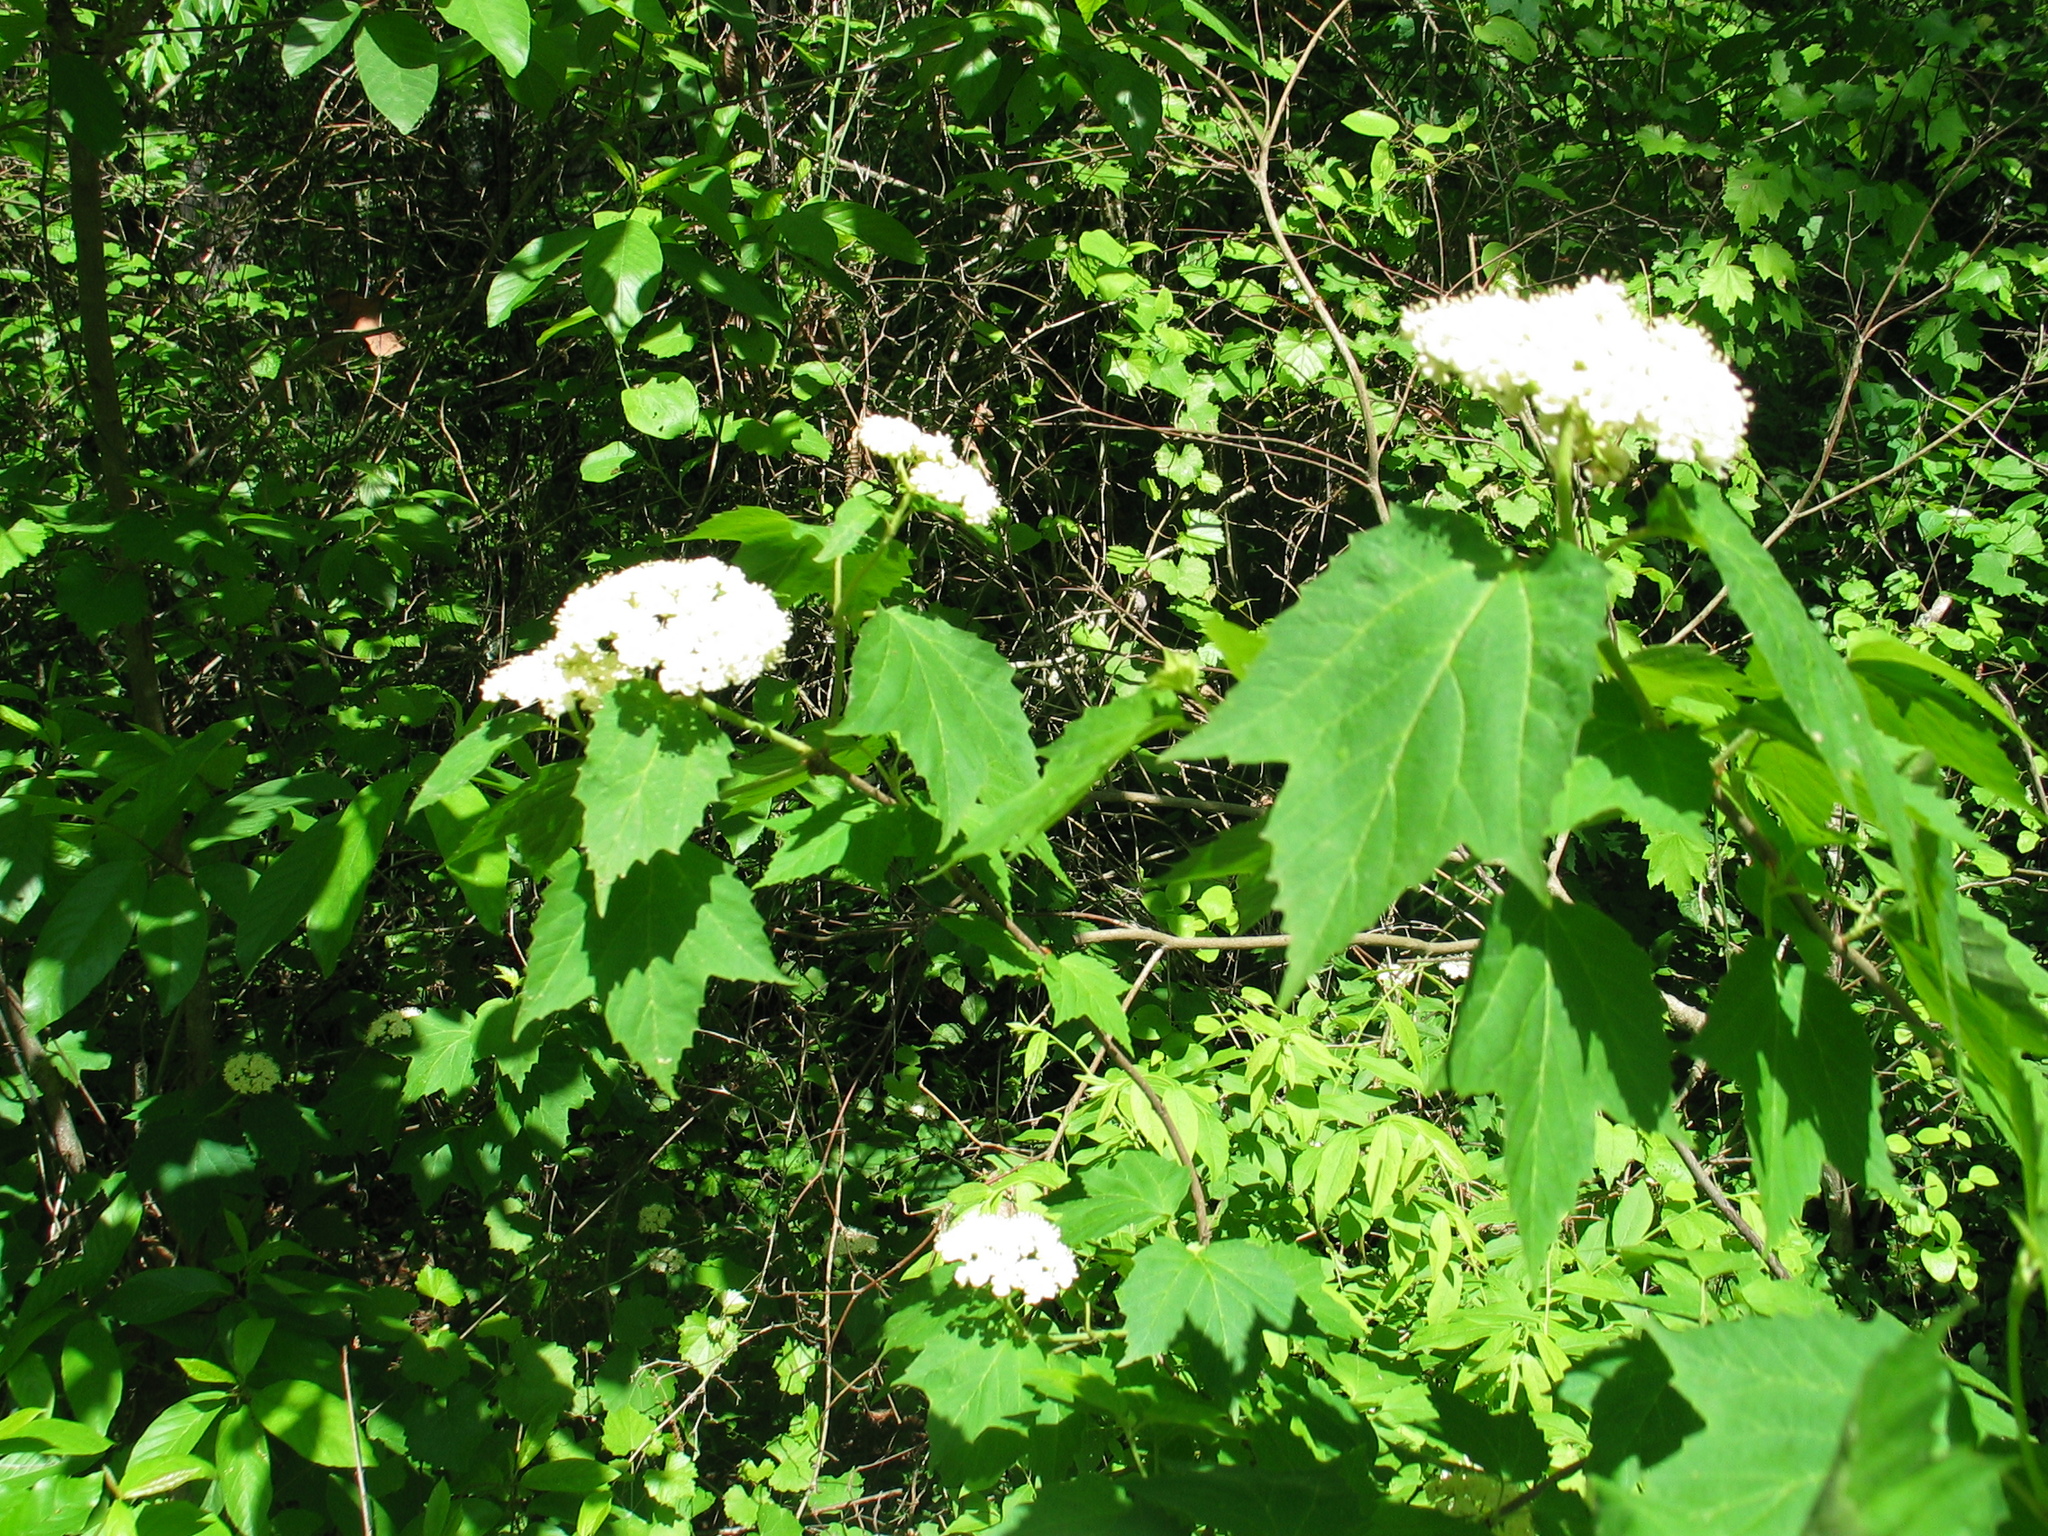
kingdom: Plantae
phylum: Tracheophyta
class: Magnoliopsida
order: Dipsacales
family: Viburnaceae
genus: Viburnum
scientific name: Viburnum acerifolium
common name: Dockmackie
